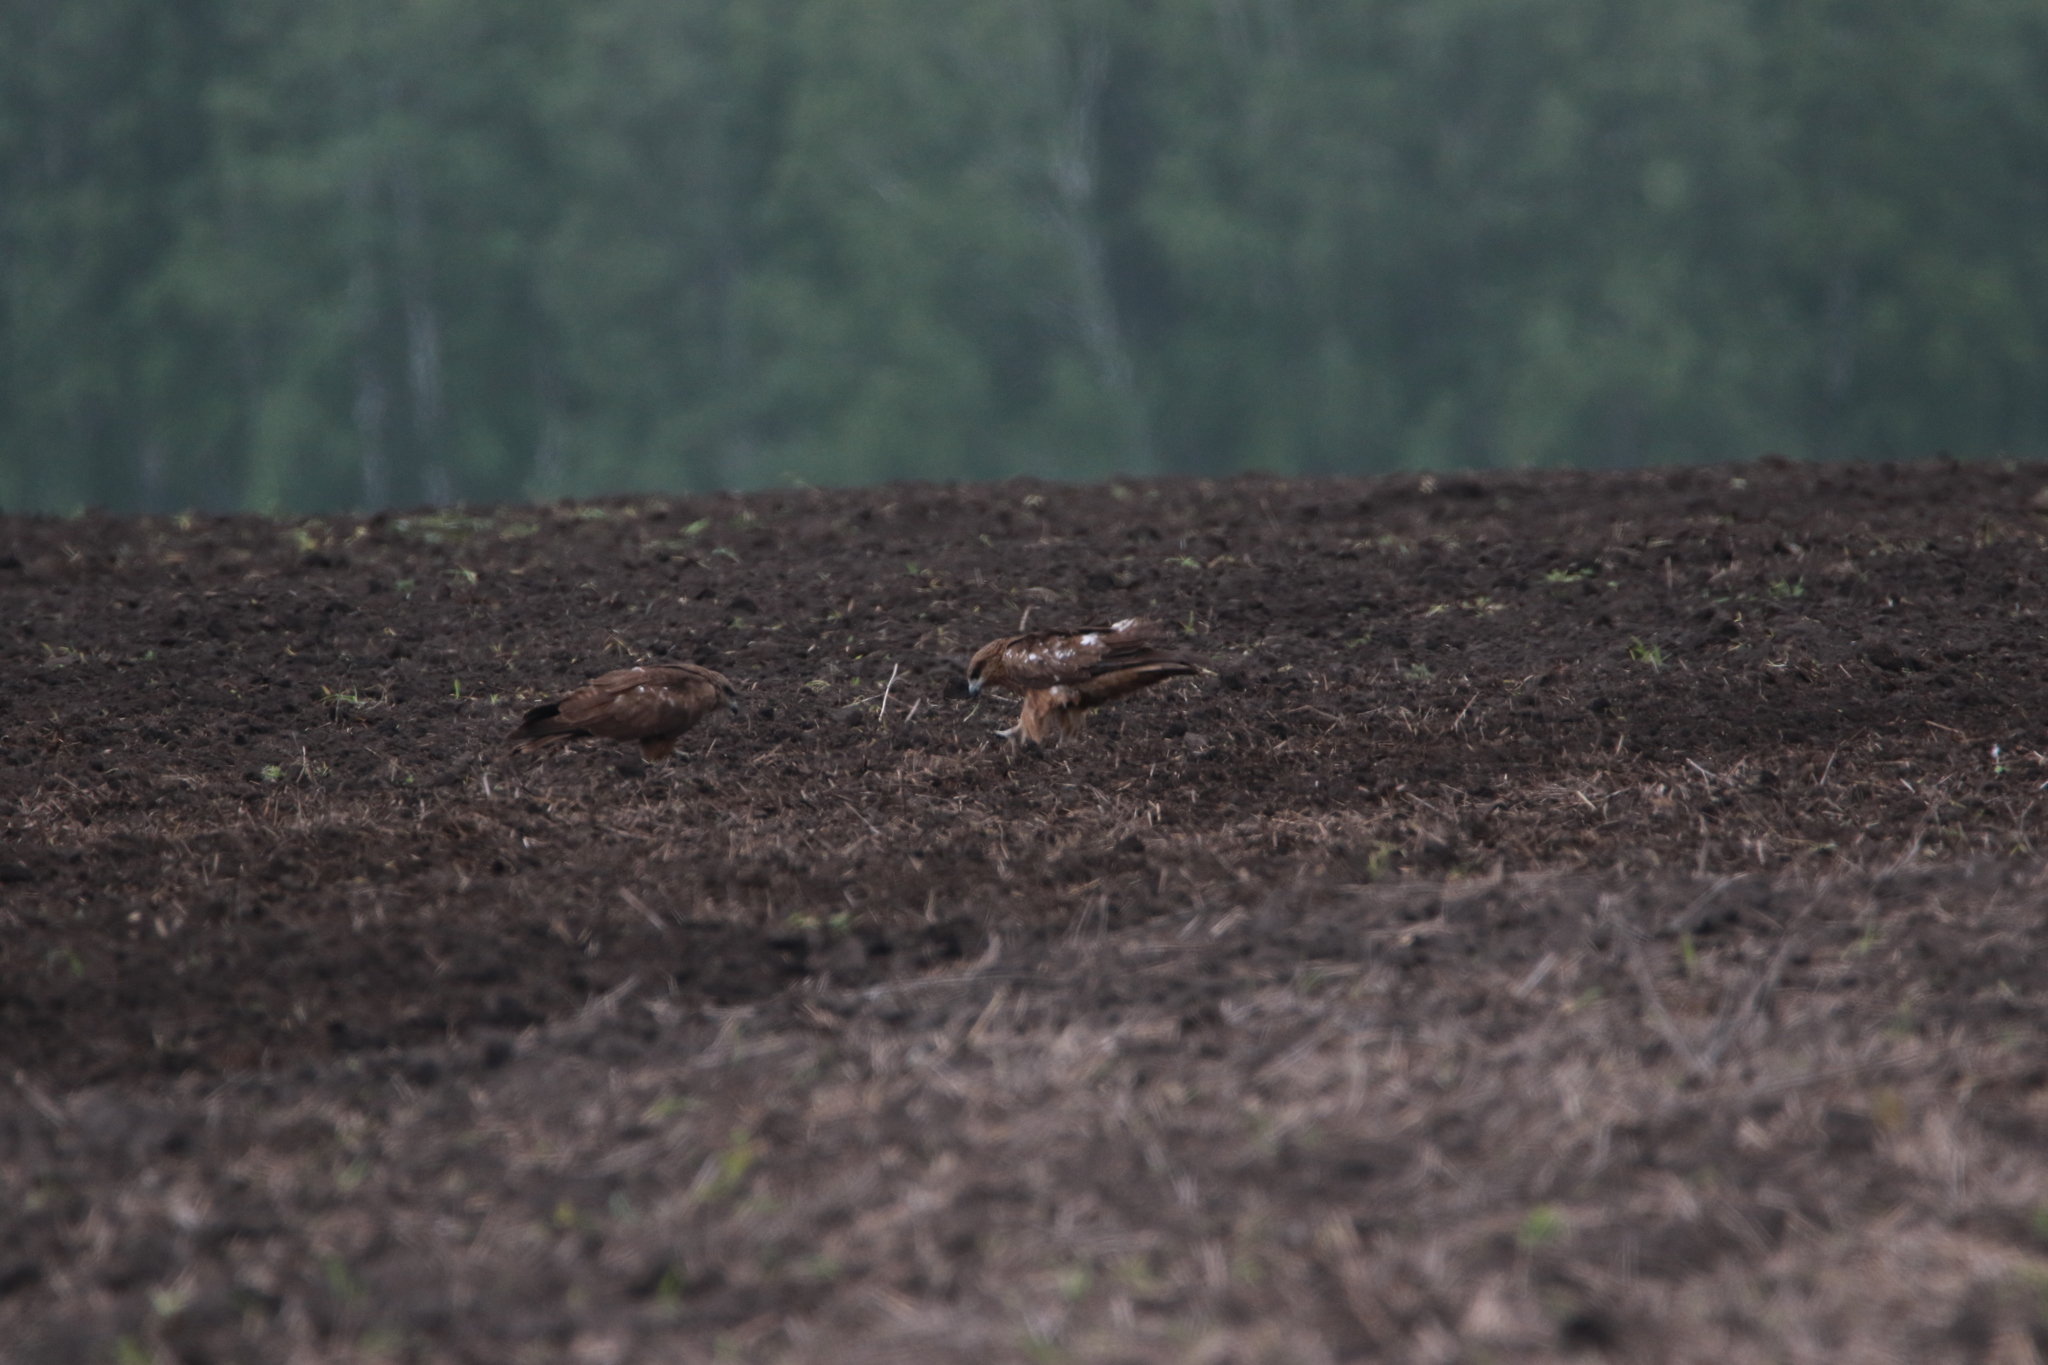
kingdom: Animalia
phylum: Chordata
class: Aves
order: Accipitriformes
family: Accipitridae
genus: Milvus
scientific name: Milvus migrans
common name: Black kite
